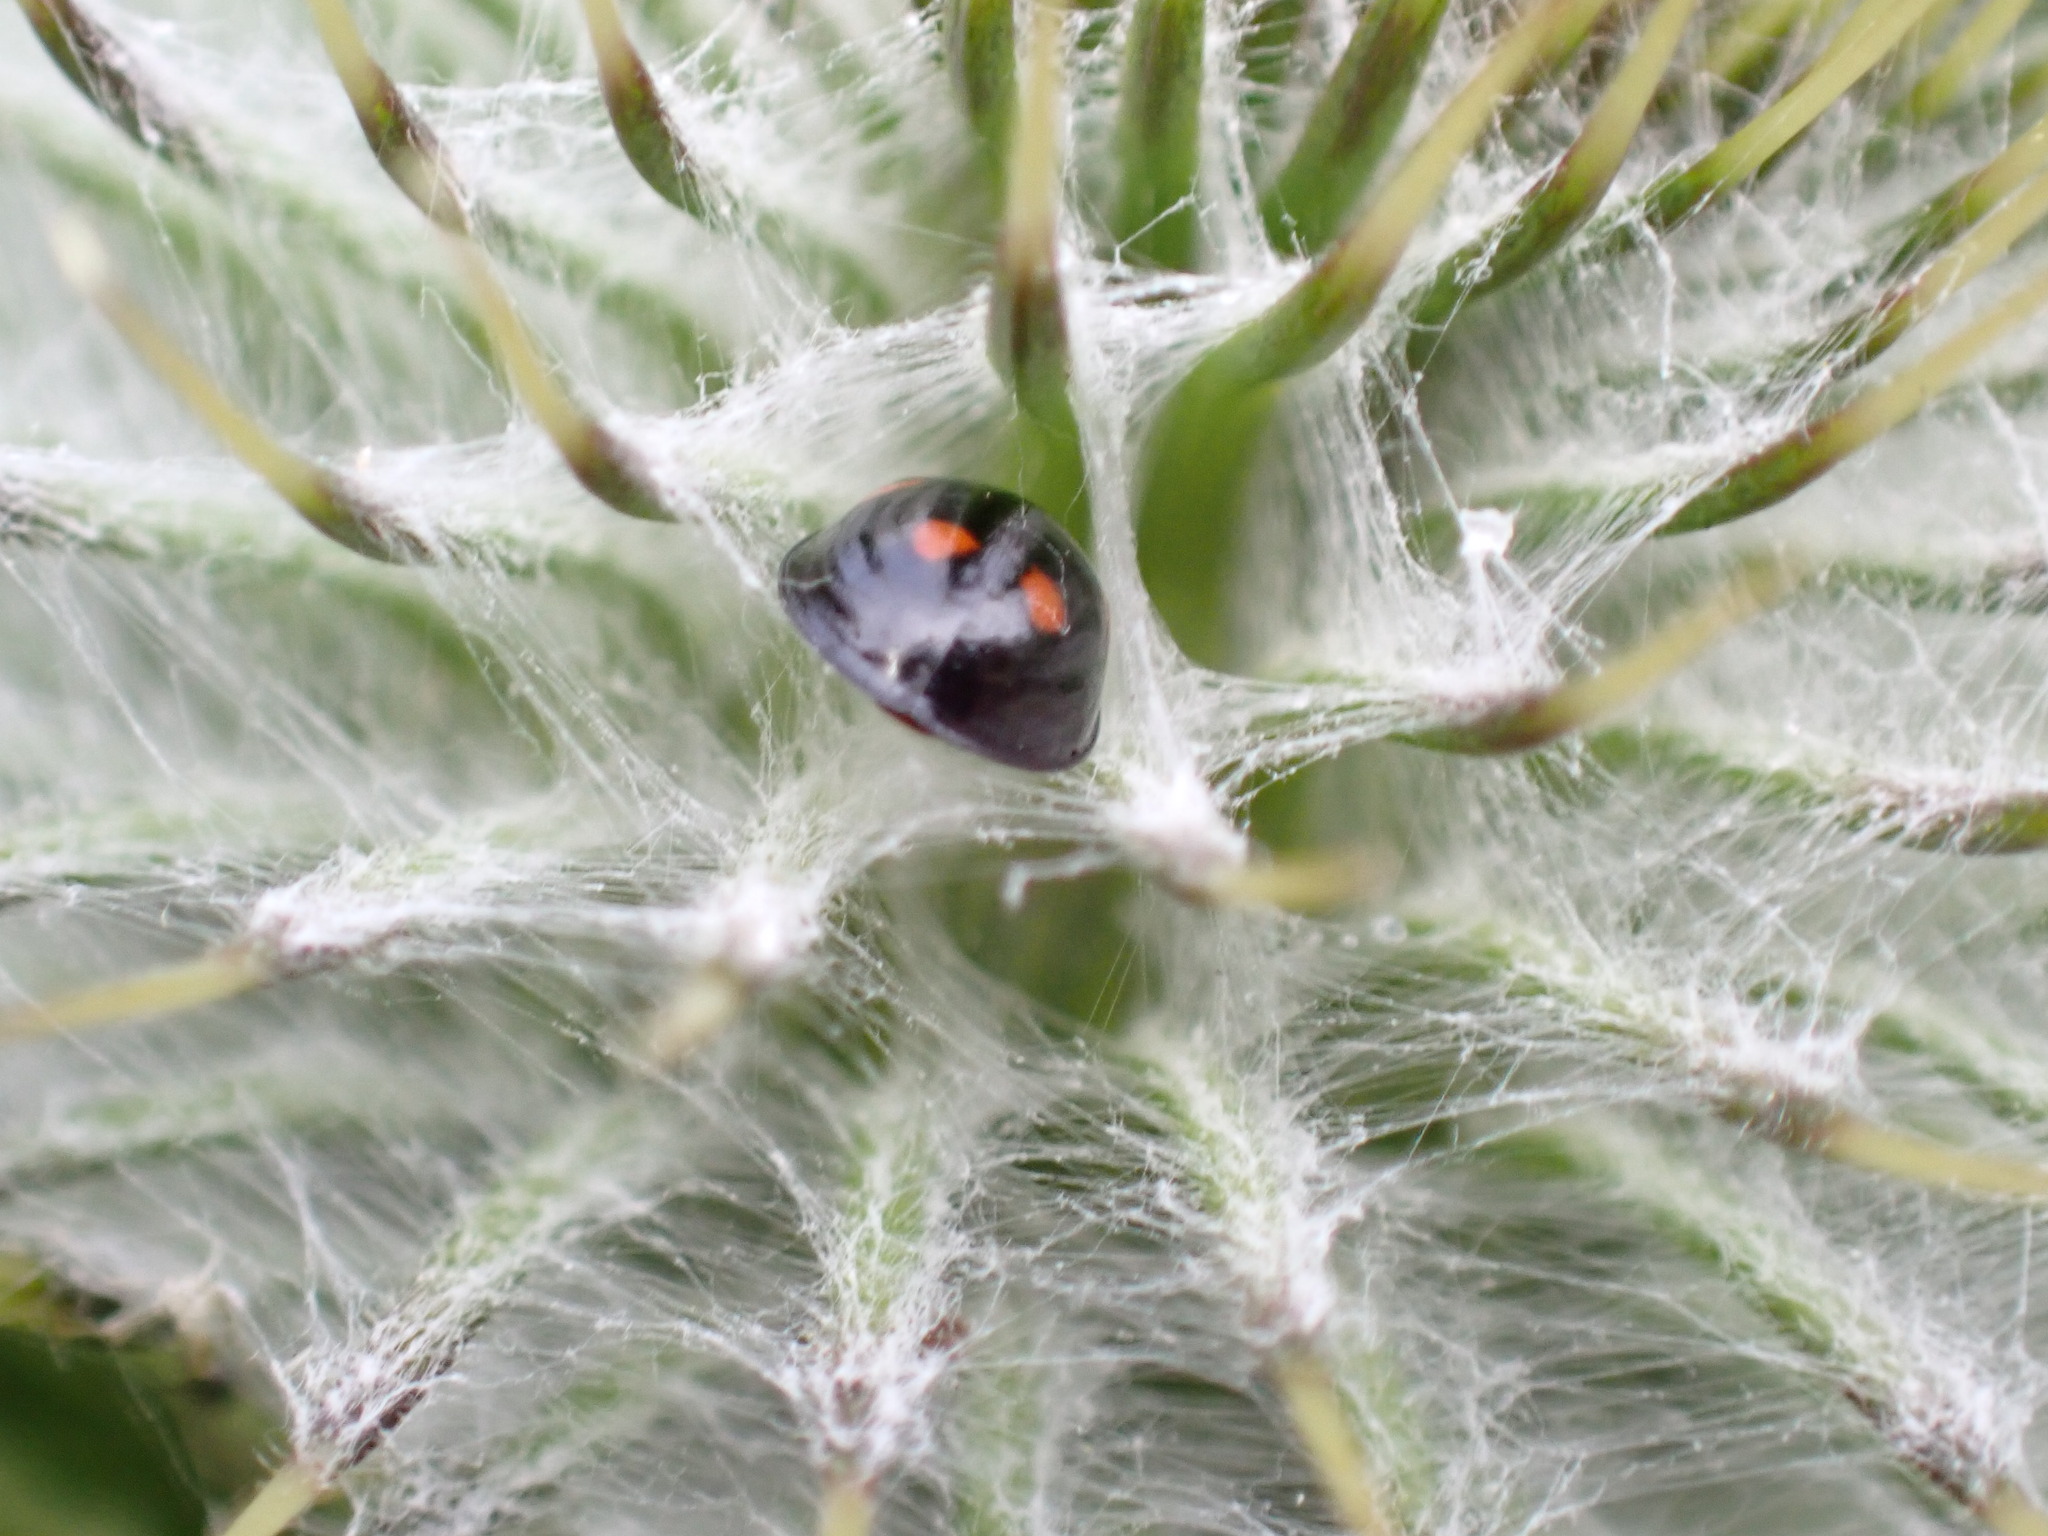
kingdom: Animalia
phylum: Arthropoda
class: Insecta
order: Coleoptera
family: Coccinellidae
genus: Brumus
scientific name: Brumus quadripustulatus
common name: Ladybird beetle
